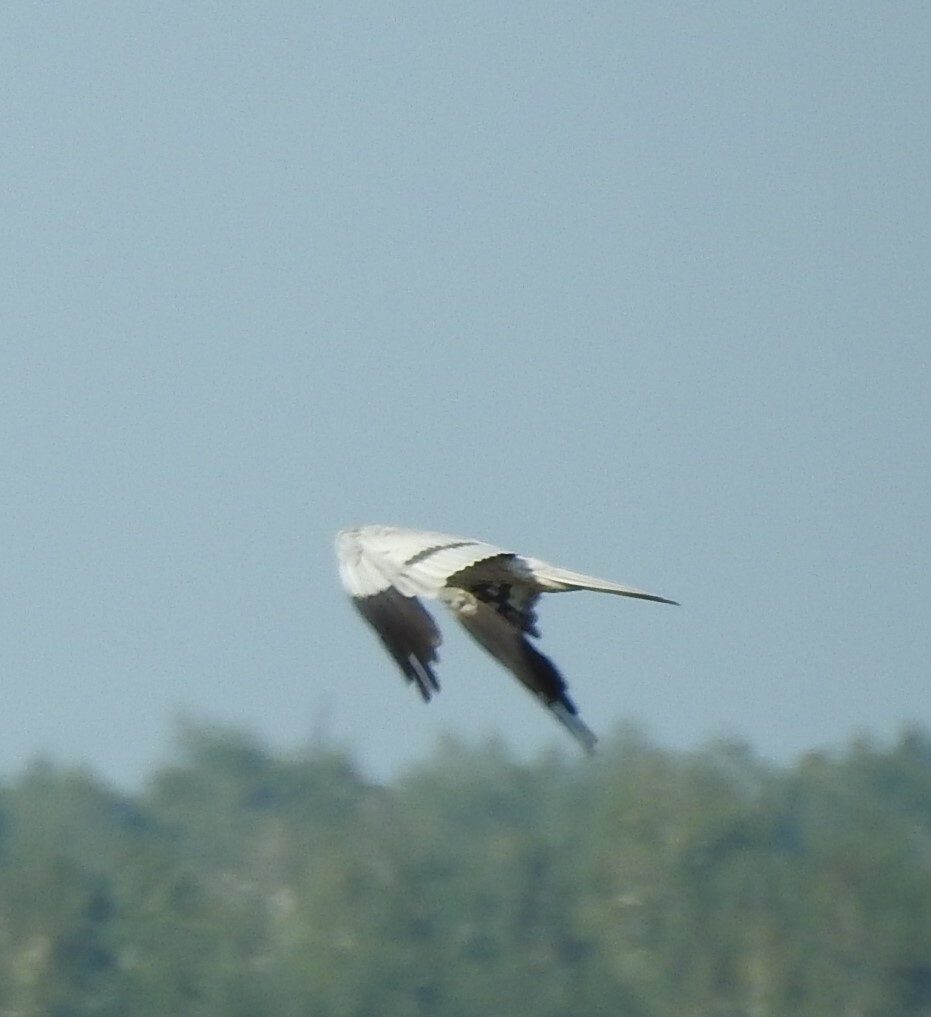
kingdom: Animalia
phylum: Chordata
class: Aves
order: Accipitriformes
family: Accipitridae
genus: Circus
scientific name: Circus pygargus
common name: Montagu's harrier
